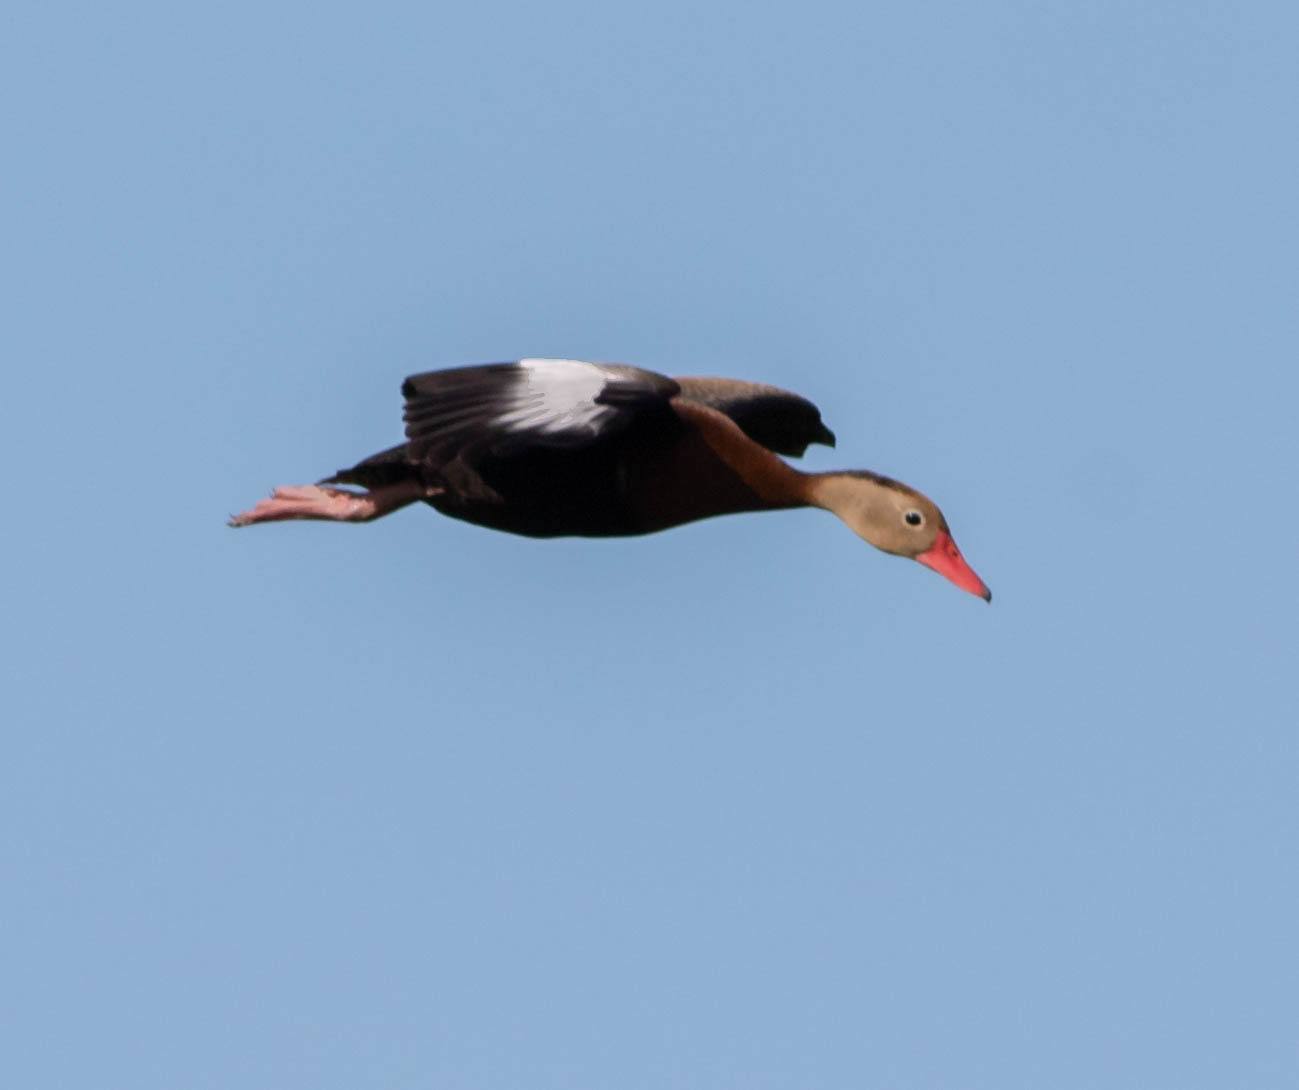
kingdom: Animalia
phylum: Chordata
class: Aves
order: Anseriformes
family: Anatidae
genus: Dendrocygna
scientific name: Dendrocygna autumnalis
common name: Black-bellied whistling duck
